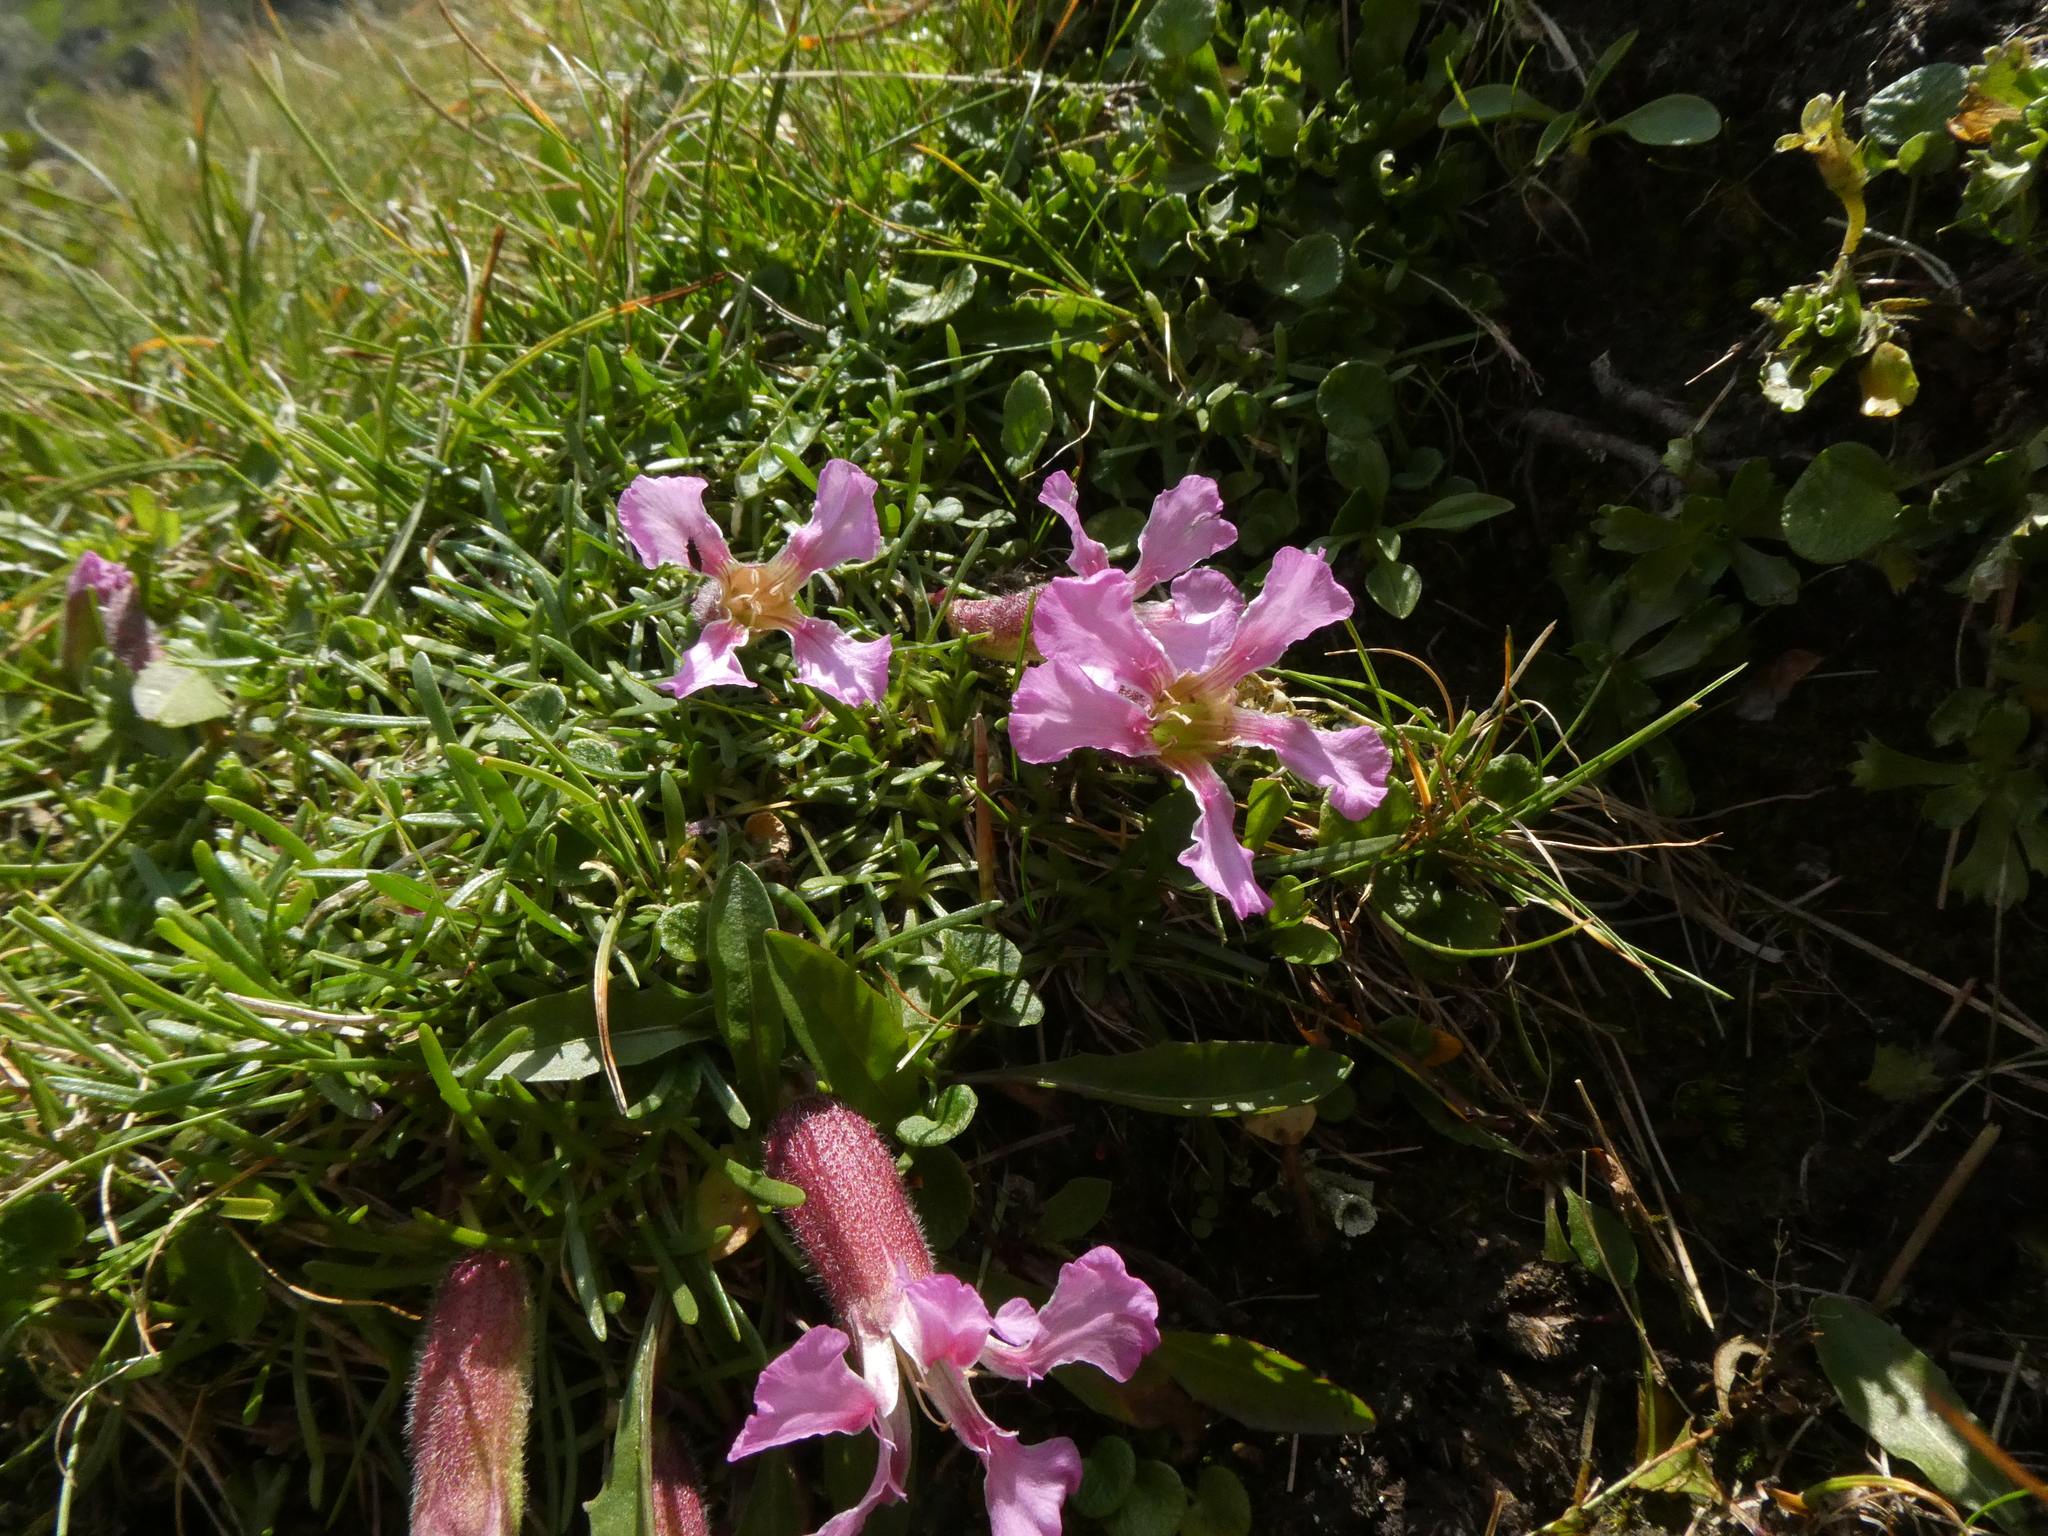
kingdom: Plantae
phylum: Tracheophyta
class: Magnoliopsida
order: Caryophyllales
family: Caryophyllaceae
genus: Saponaria
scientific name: Saponaria pumila
